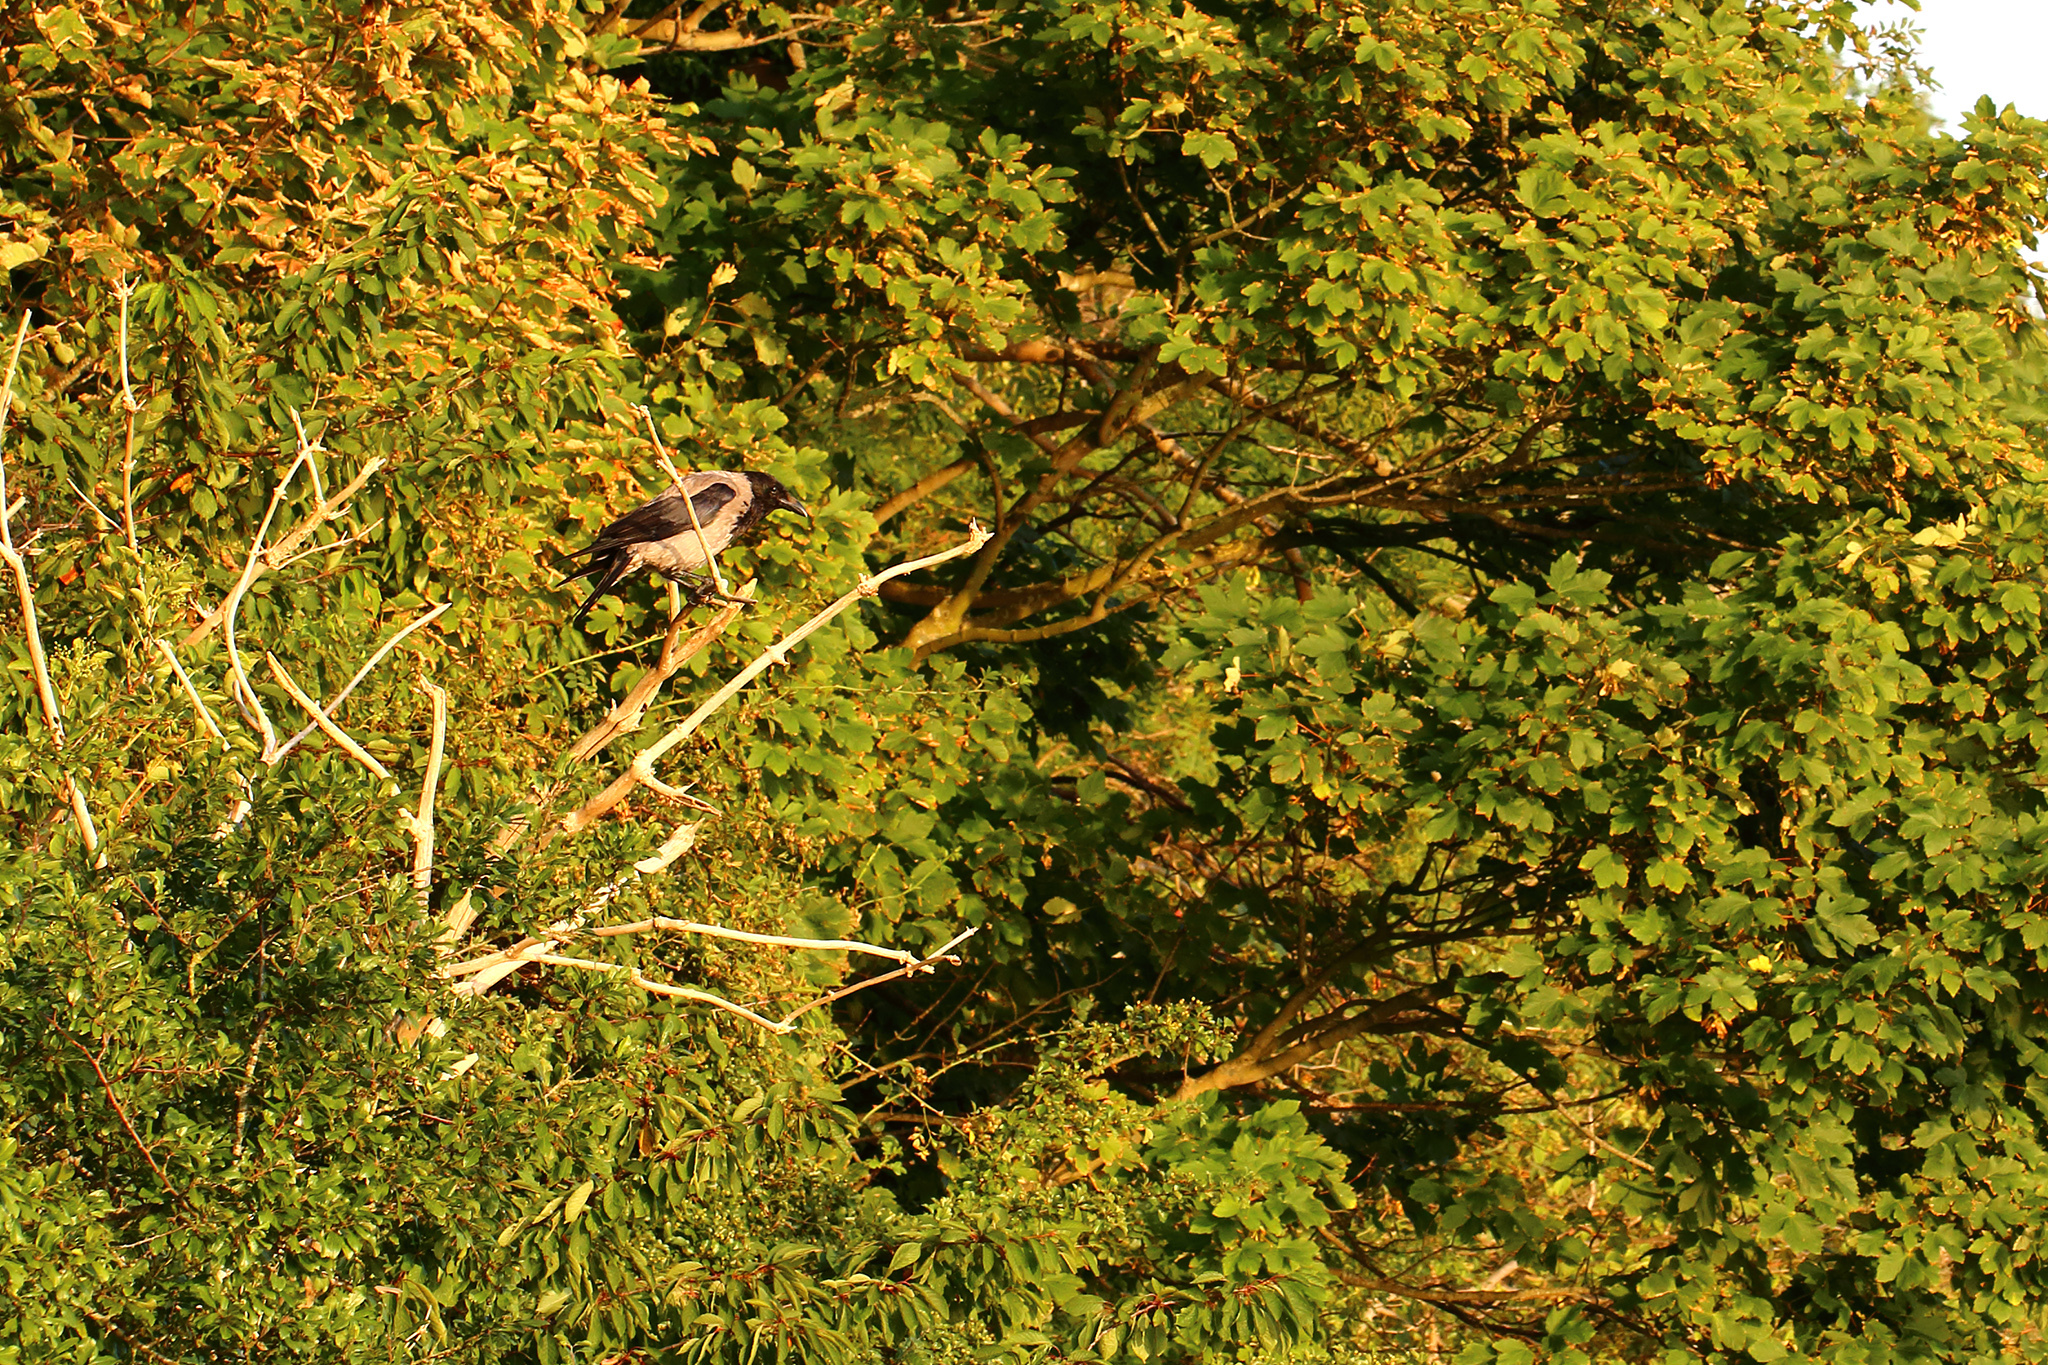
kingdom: Animalia
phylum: Chordata
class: Aves
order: Passeriformes
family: Corvidae
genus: Corvus
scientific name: Corvus cornix
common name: Hooded crow
